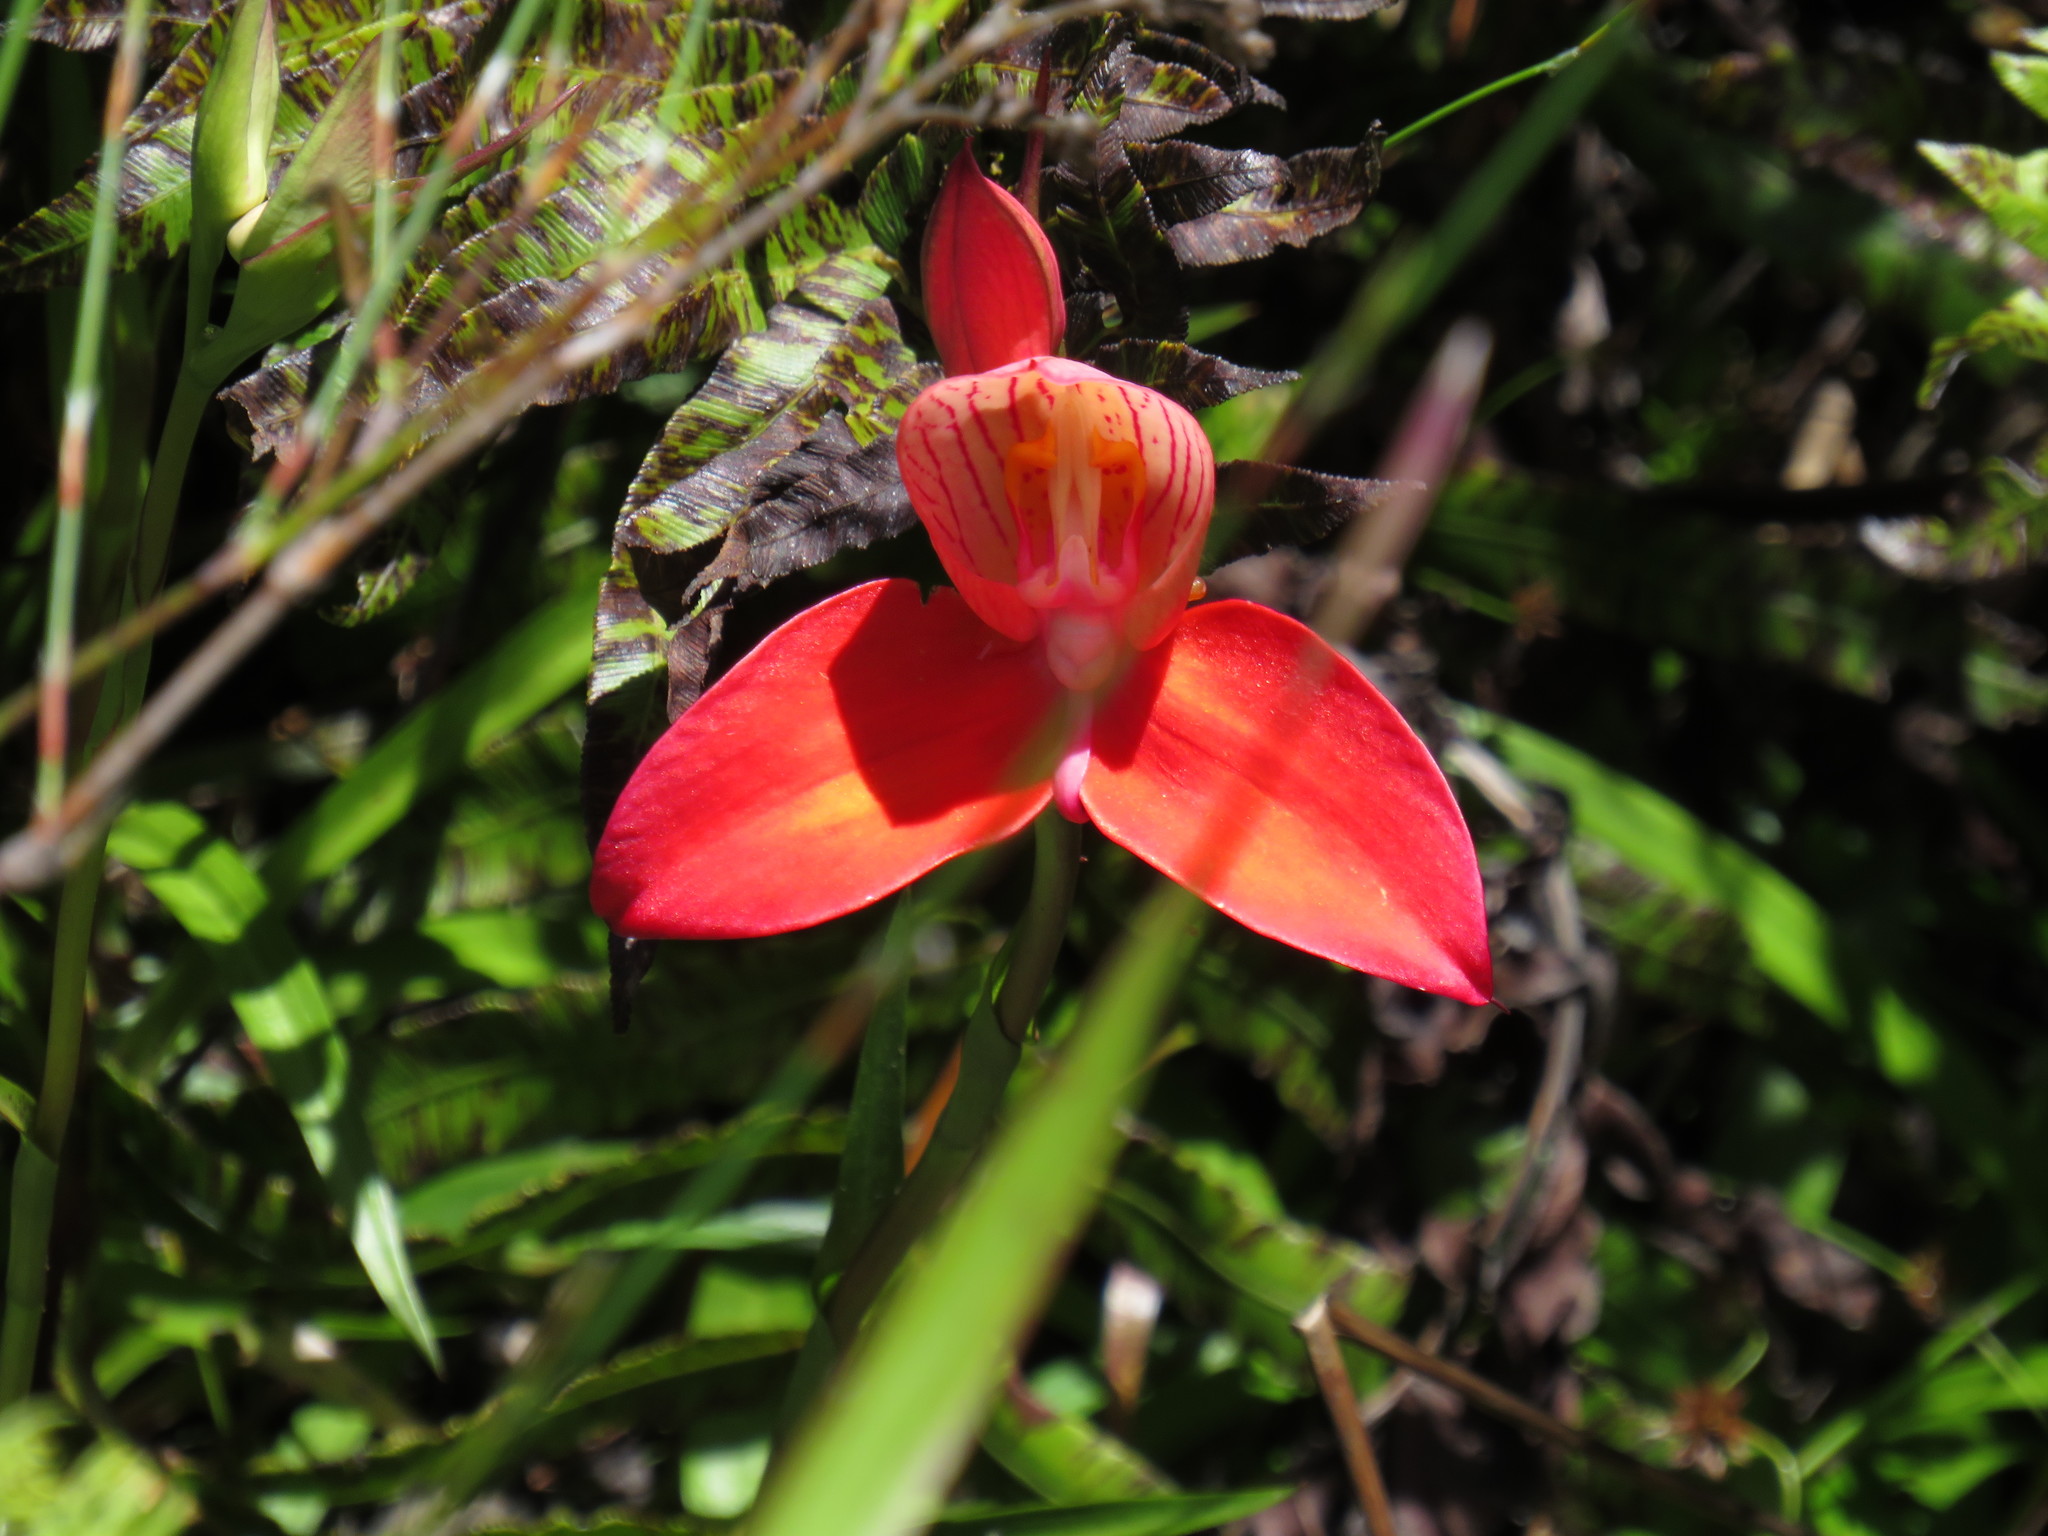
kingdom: Plantae
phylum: Tracheophyta
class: Liliopsida
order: Asparagales
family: Orchidaceae
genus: Disa
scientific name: Disa uniflora
